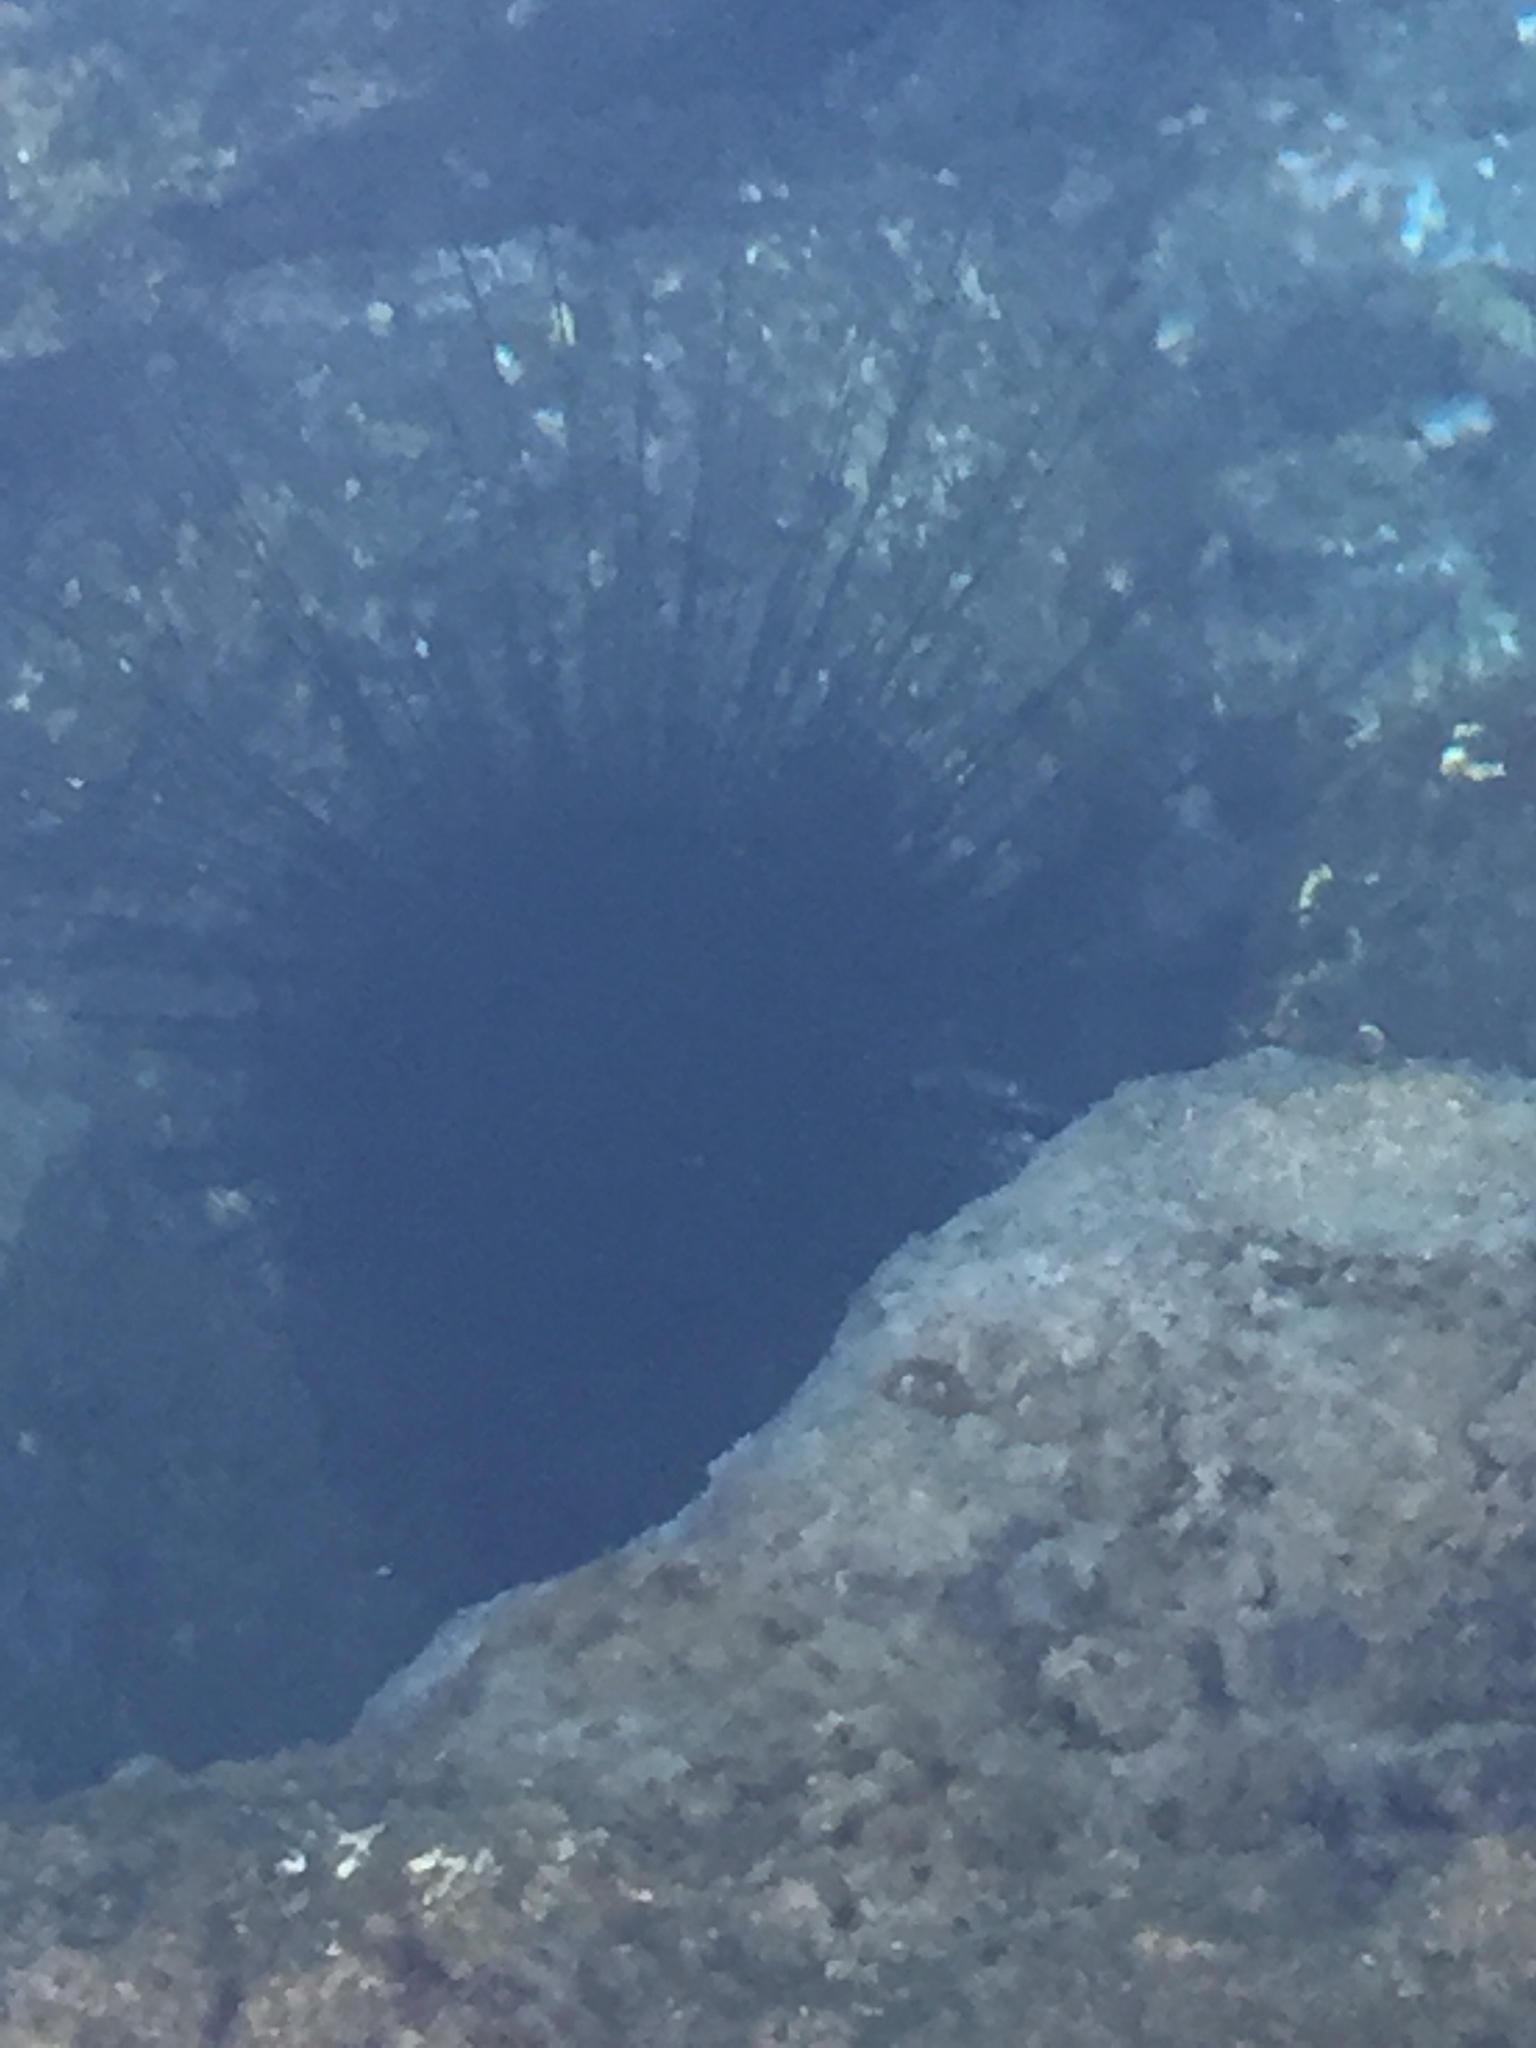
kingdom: Animalia
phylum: Echinodermata
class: Echinoidea
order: Diadematoida
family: Diadematidae
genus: Diadema
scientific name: Diadema africanum
